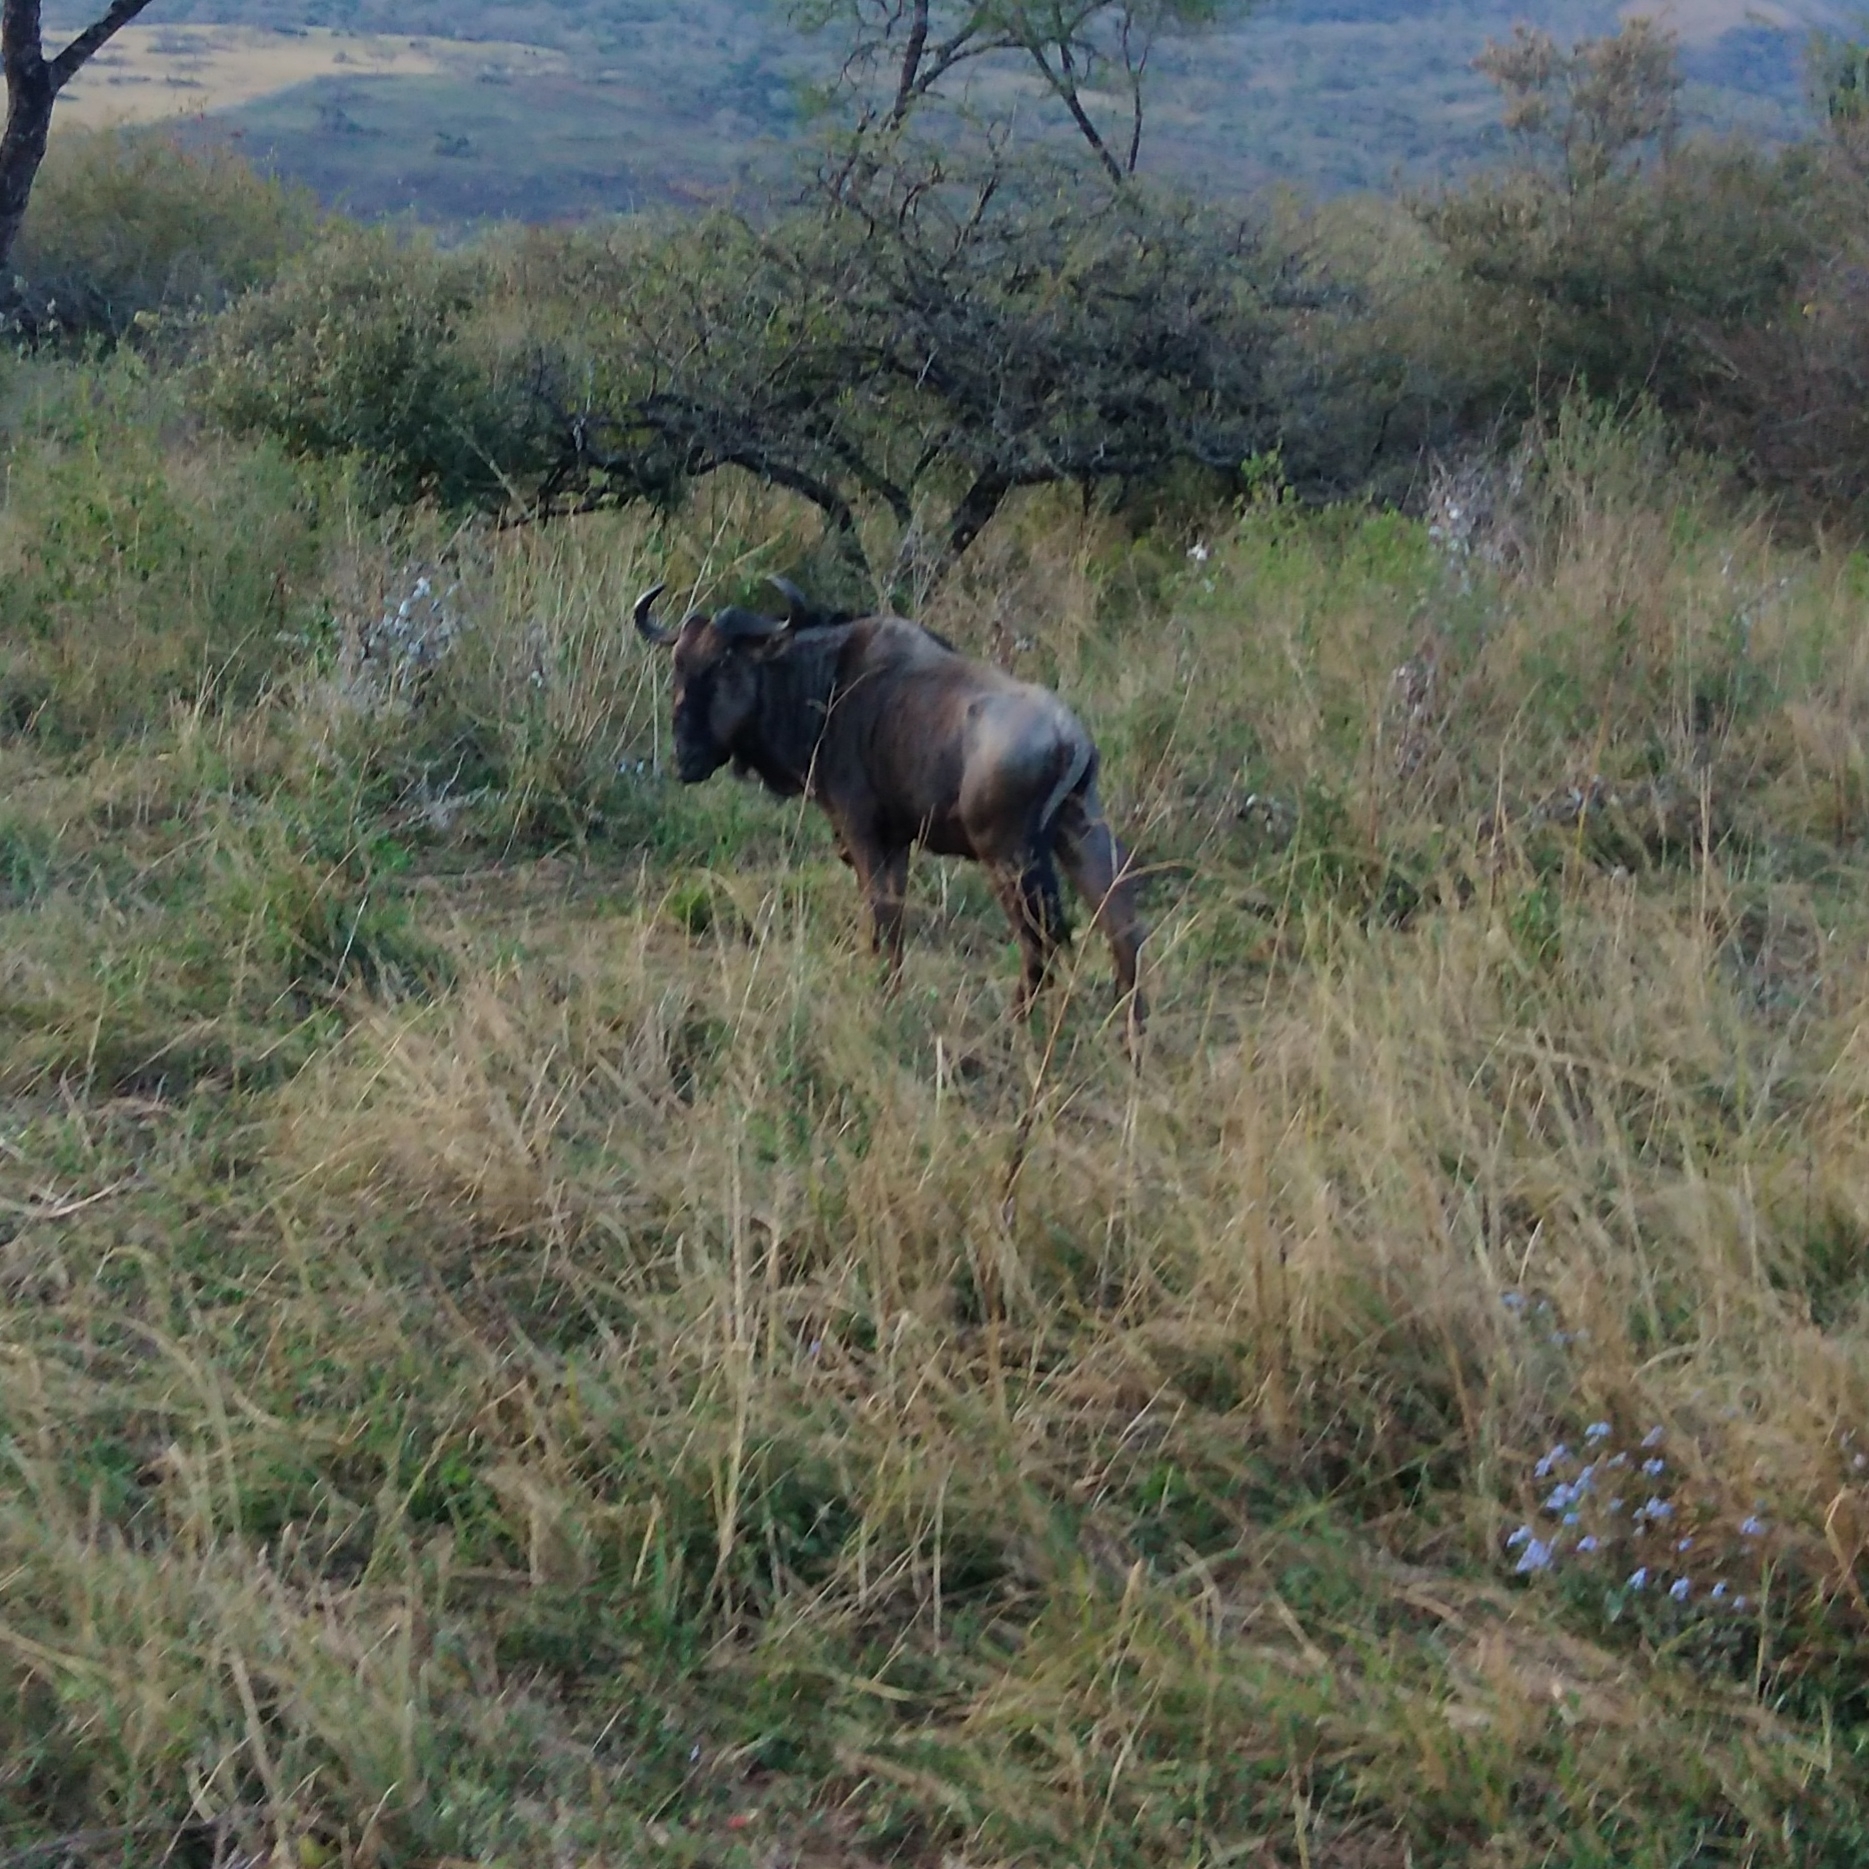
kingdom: Animalia
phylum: Chordata
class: Mammalia
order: Artiodactyla
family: Bovidae
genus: Connochaetes
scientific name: Connochaetes taurinus
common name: Blue wildebeest
